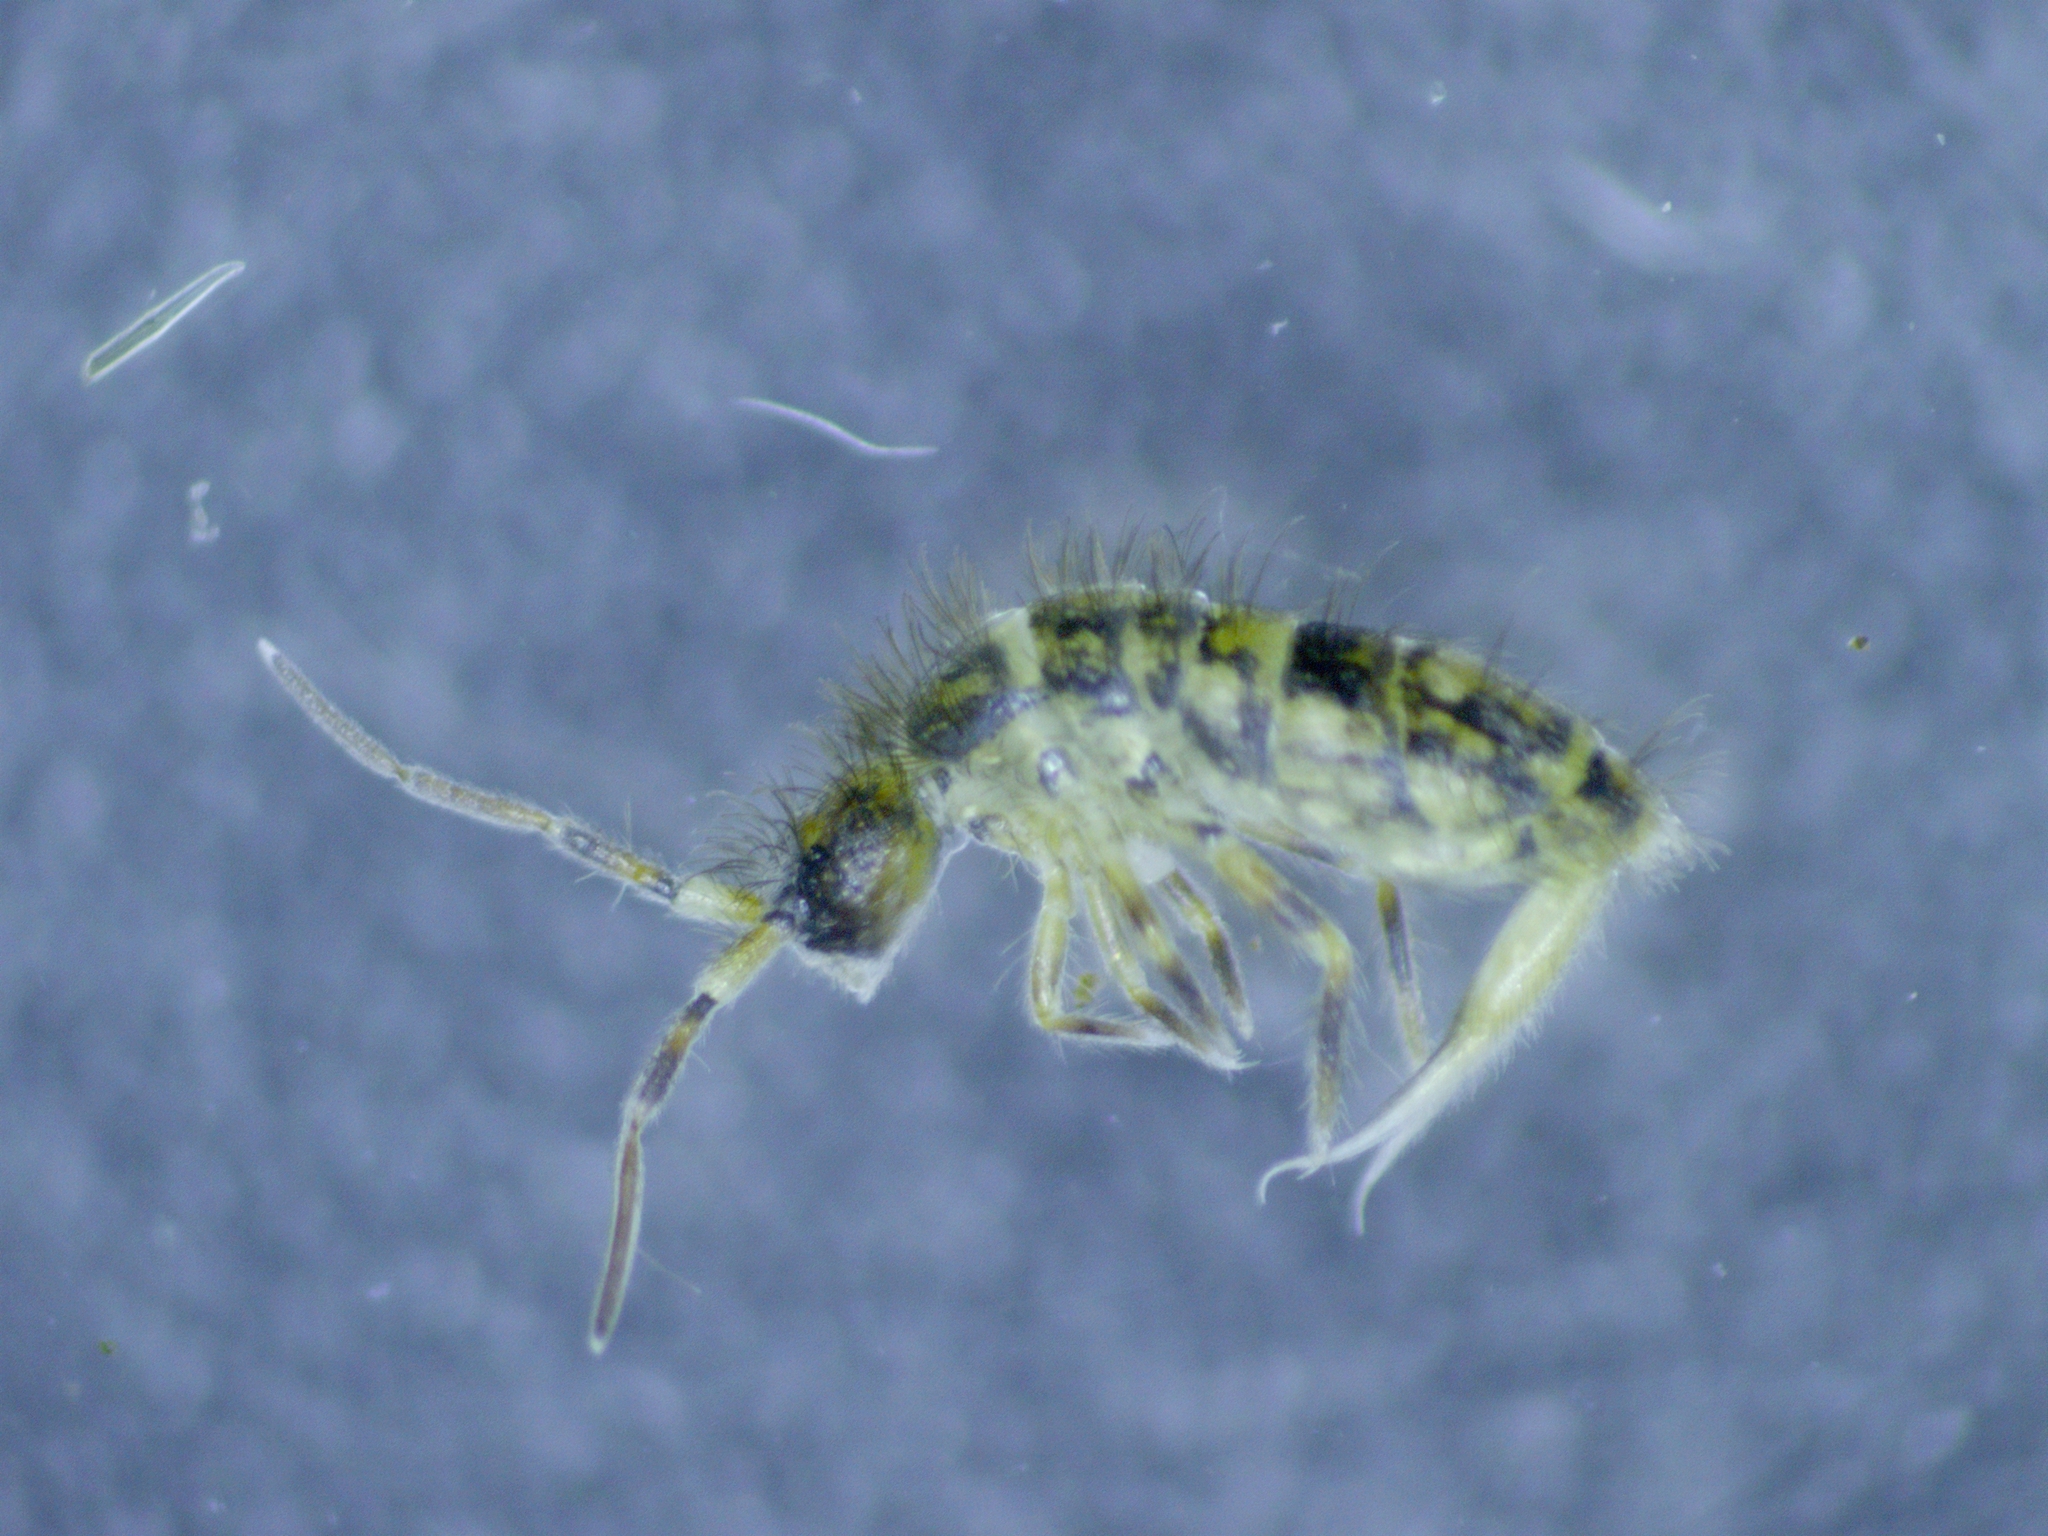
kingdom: Animalia
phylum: Arthropoda
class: Collembola
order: Entomobryomorpha
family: Orchesellidae
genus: Orchesella
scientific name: Orchesella cincta
